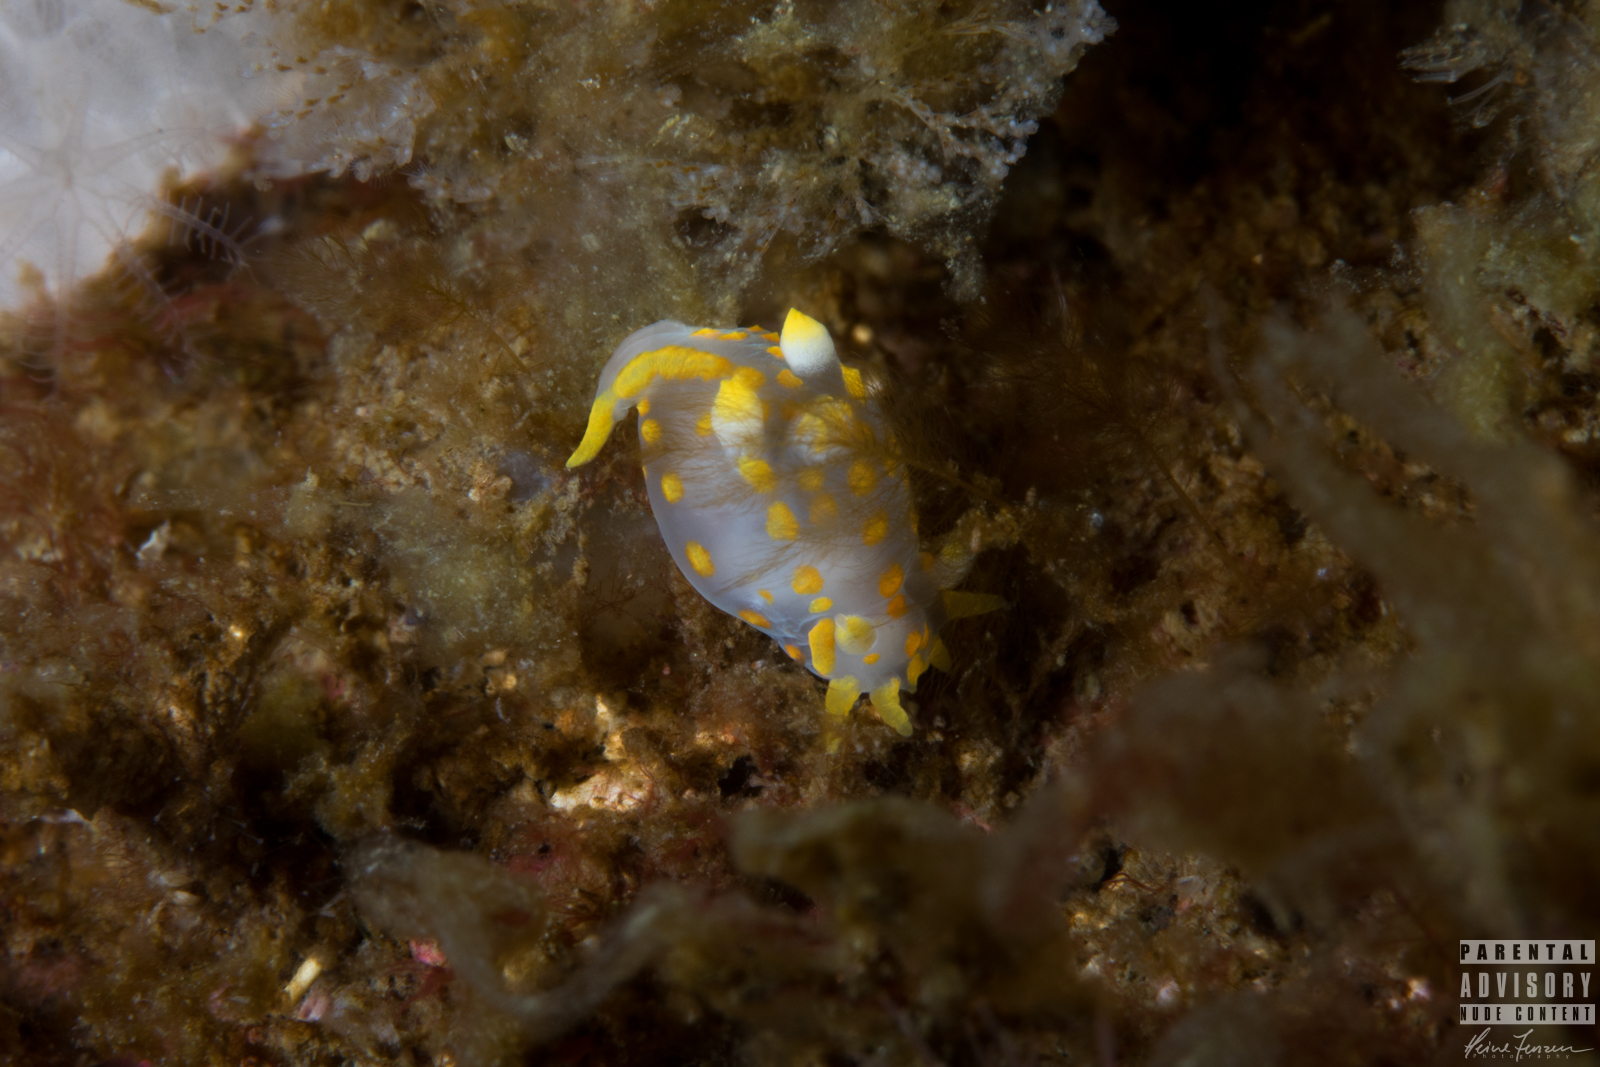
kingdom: Animalia
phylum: Mollusca
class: Gastropoda
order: Nudibranchia
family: Polyceridae
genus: Polycera
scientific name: Polycera quadrilineata
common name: Four-striped polycera
